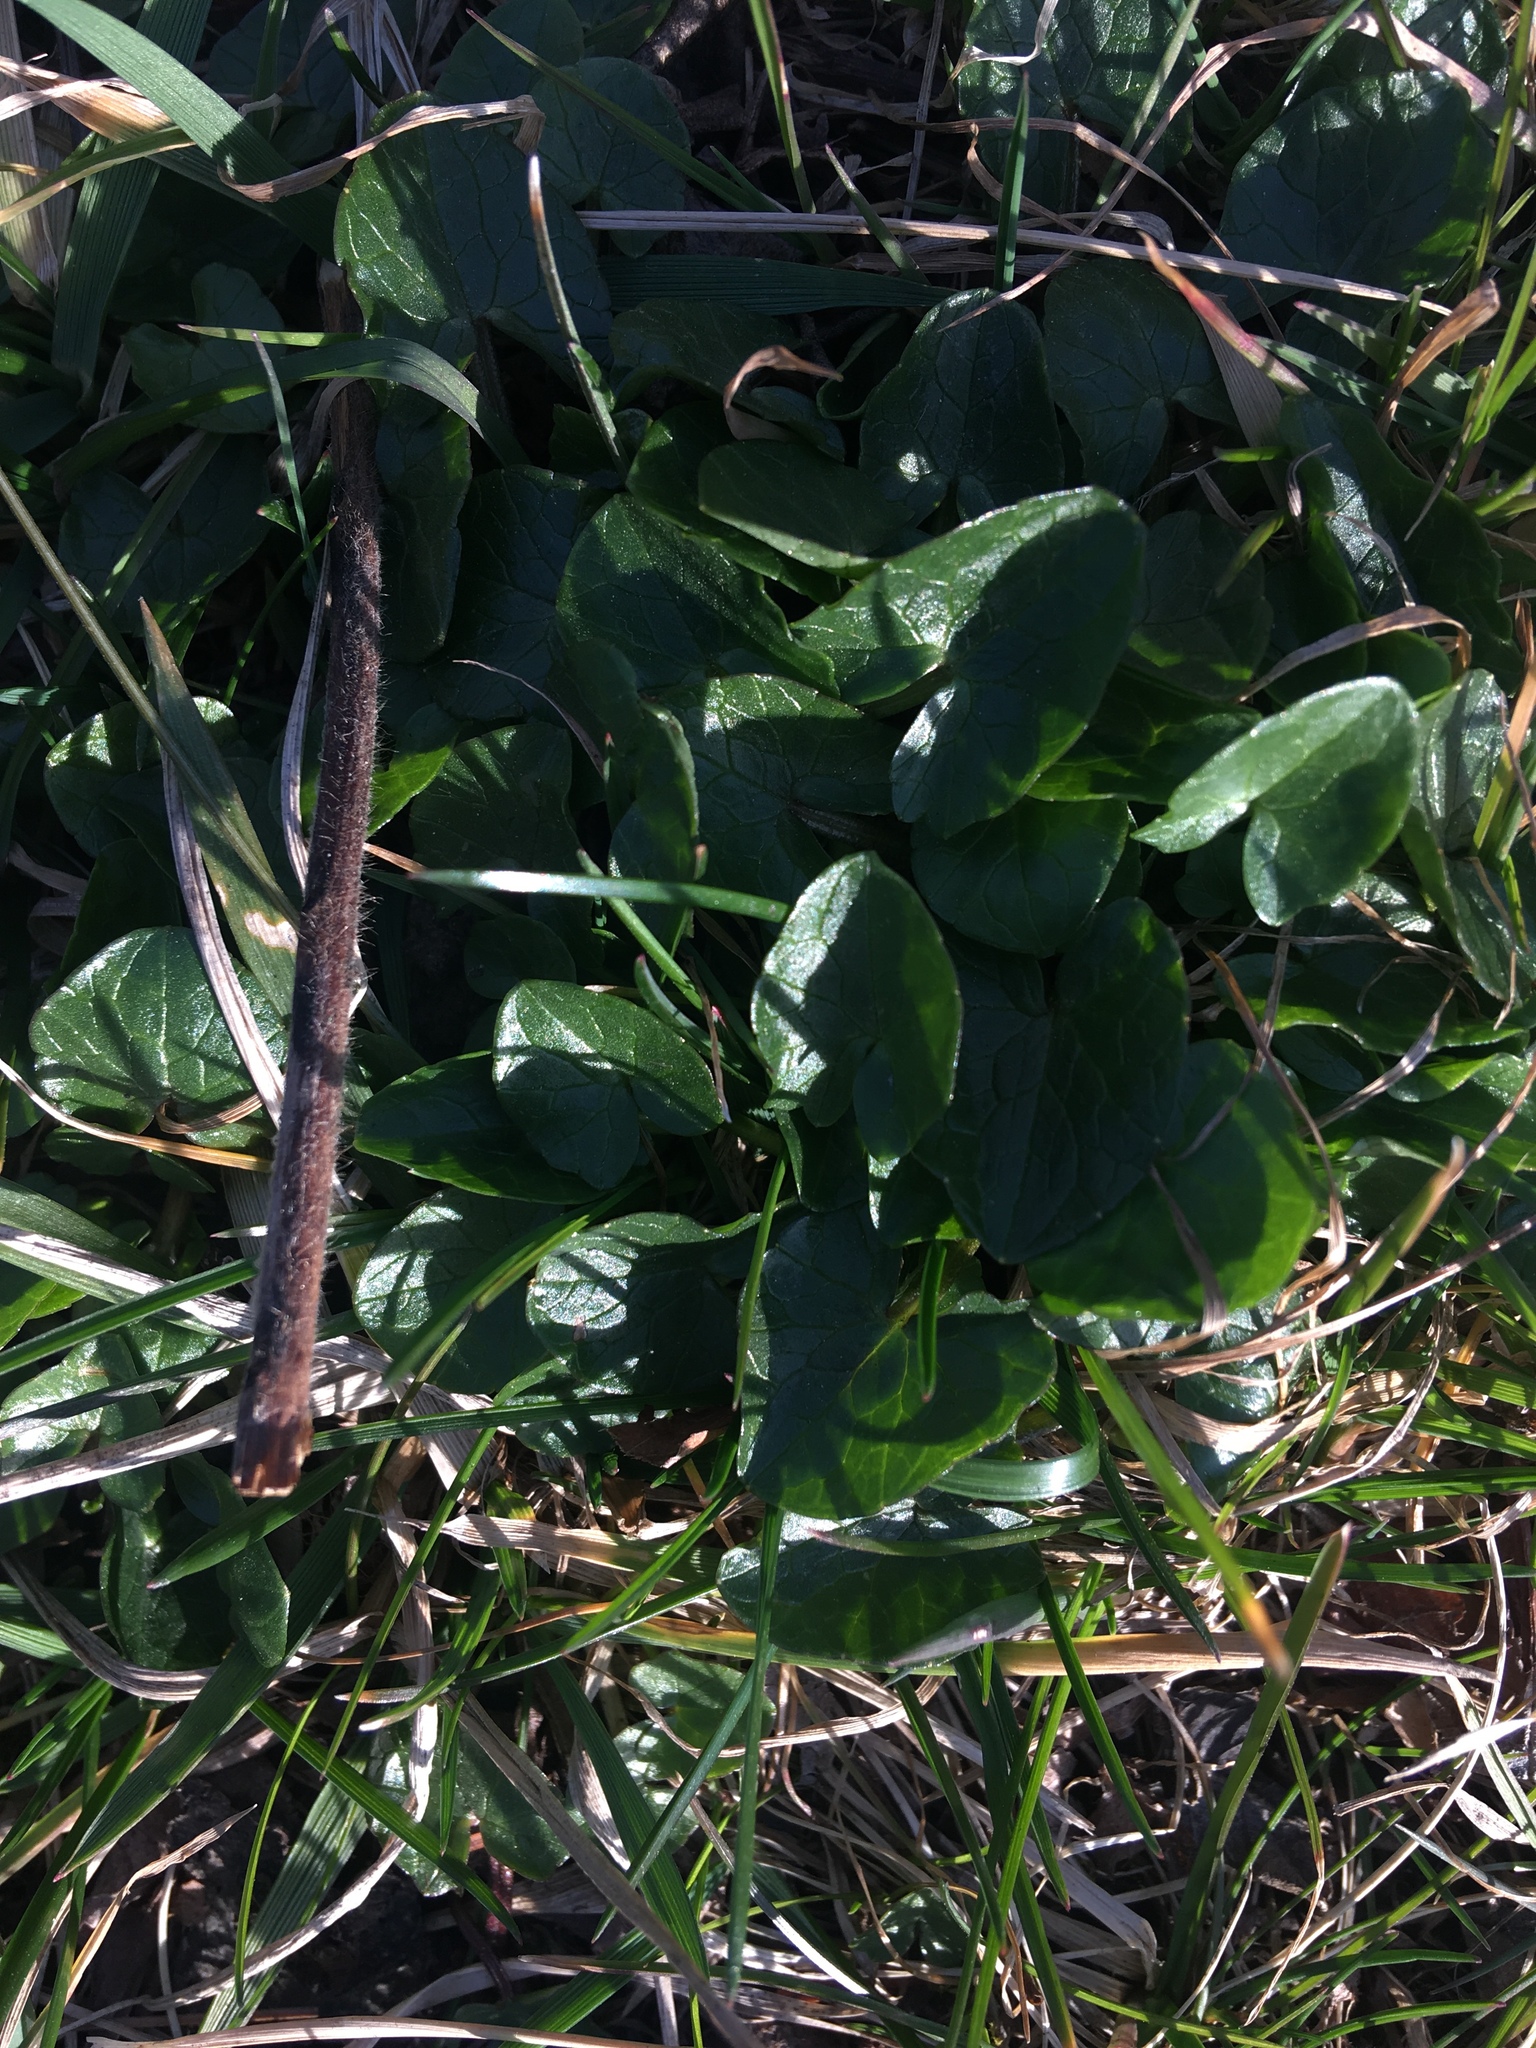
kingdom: Plantae
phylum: Tracheophyta
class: Magnoliopsida
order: Ranunculales
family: Ranunculaceae
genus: Ficaria
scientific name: Ficaria verna
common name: Lesser celandine
